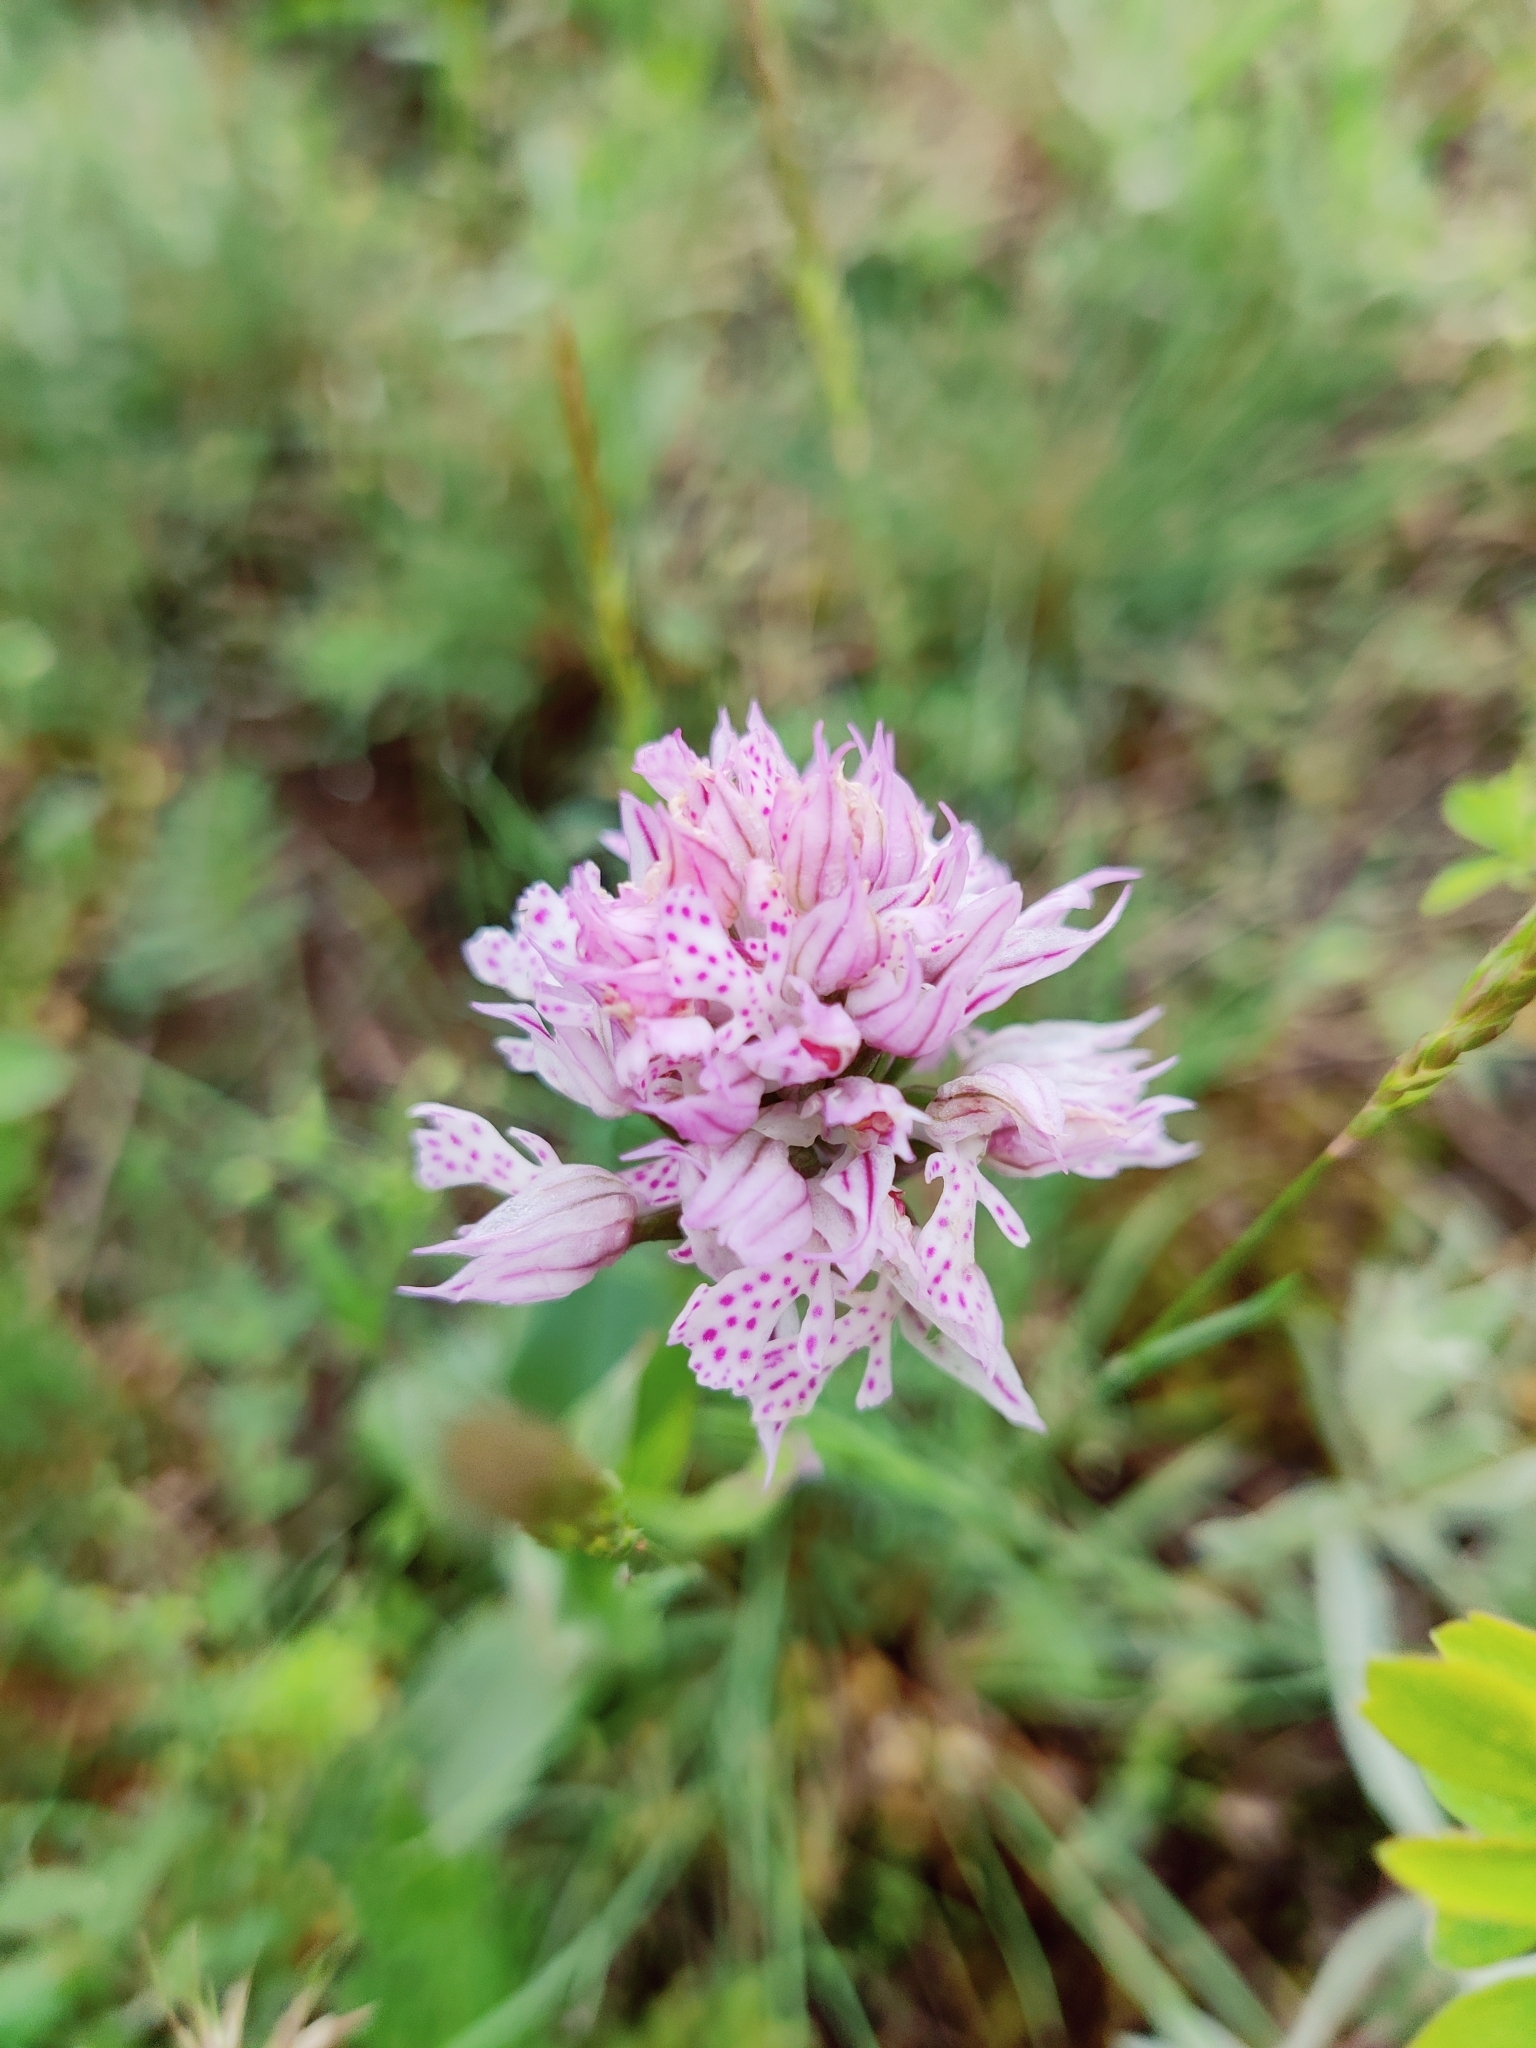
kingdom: Plantae
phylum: Tracheophyta
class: Liliopsida
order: Asparagales
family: Orchidaceae
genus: Neotinea
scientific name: Neotinea tridentata
